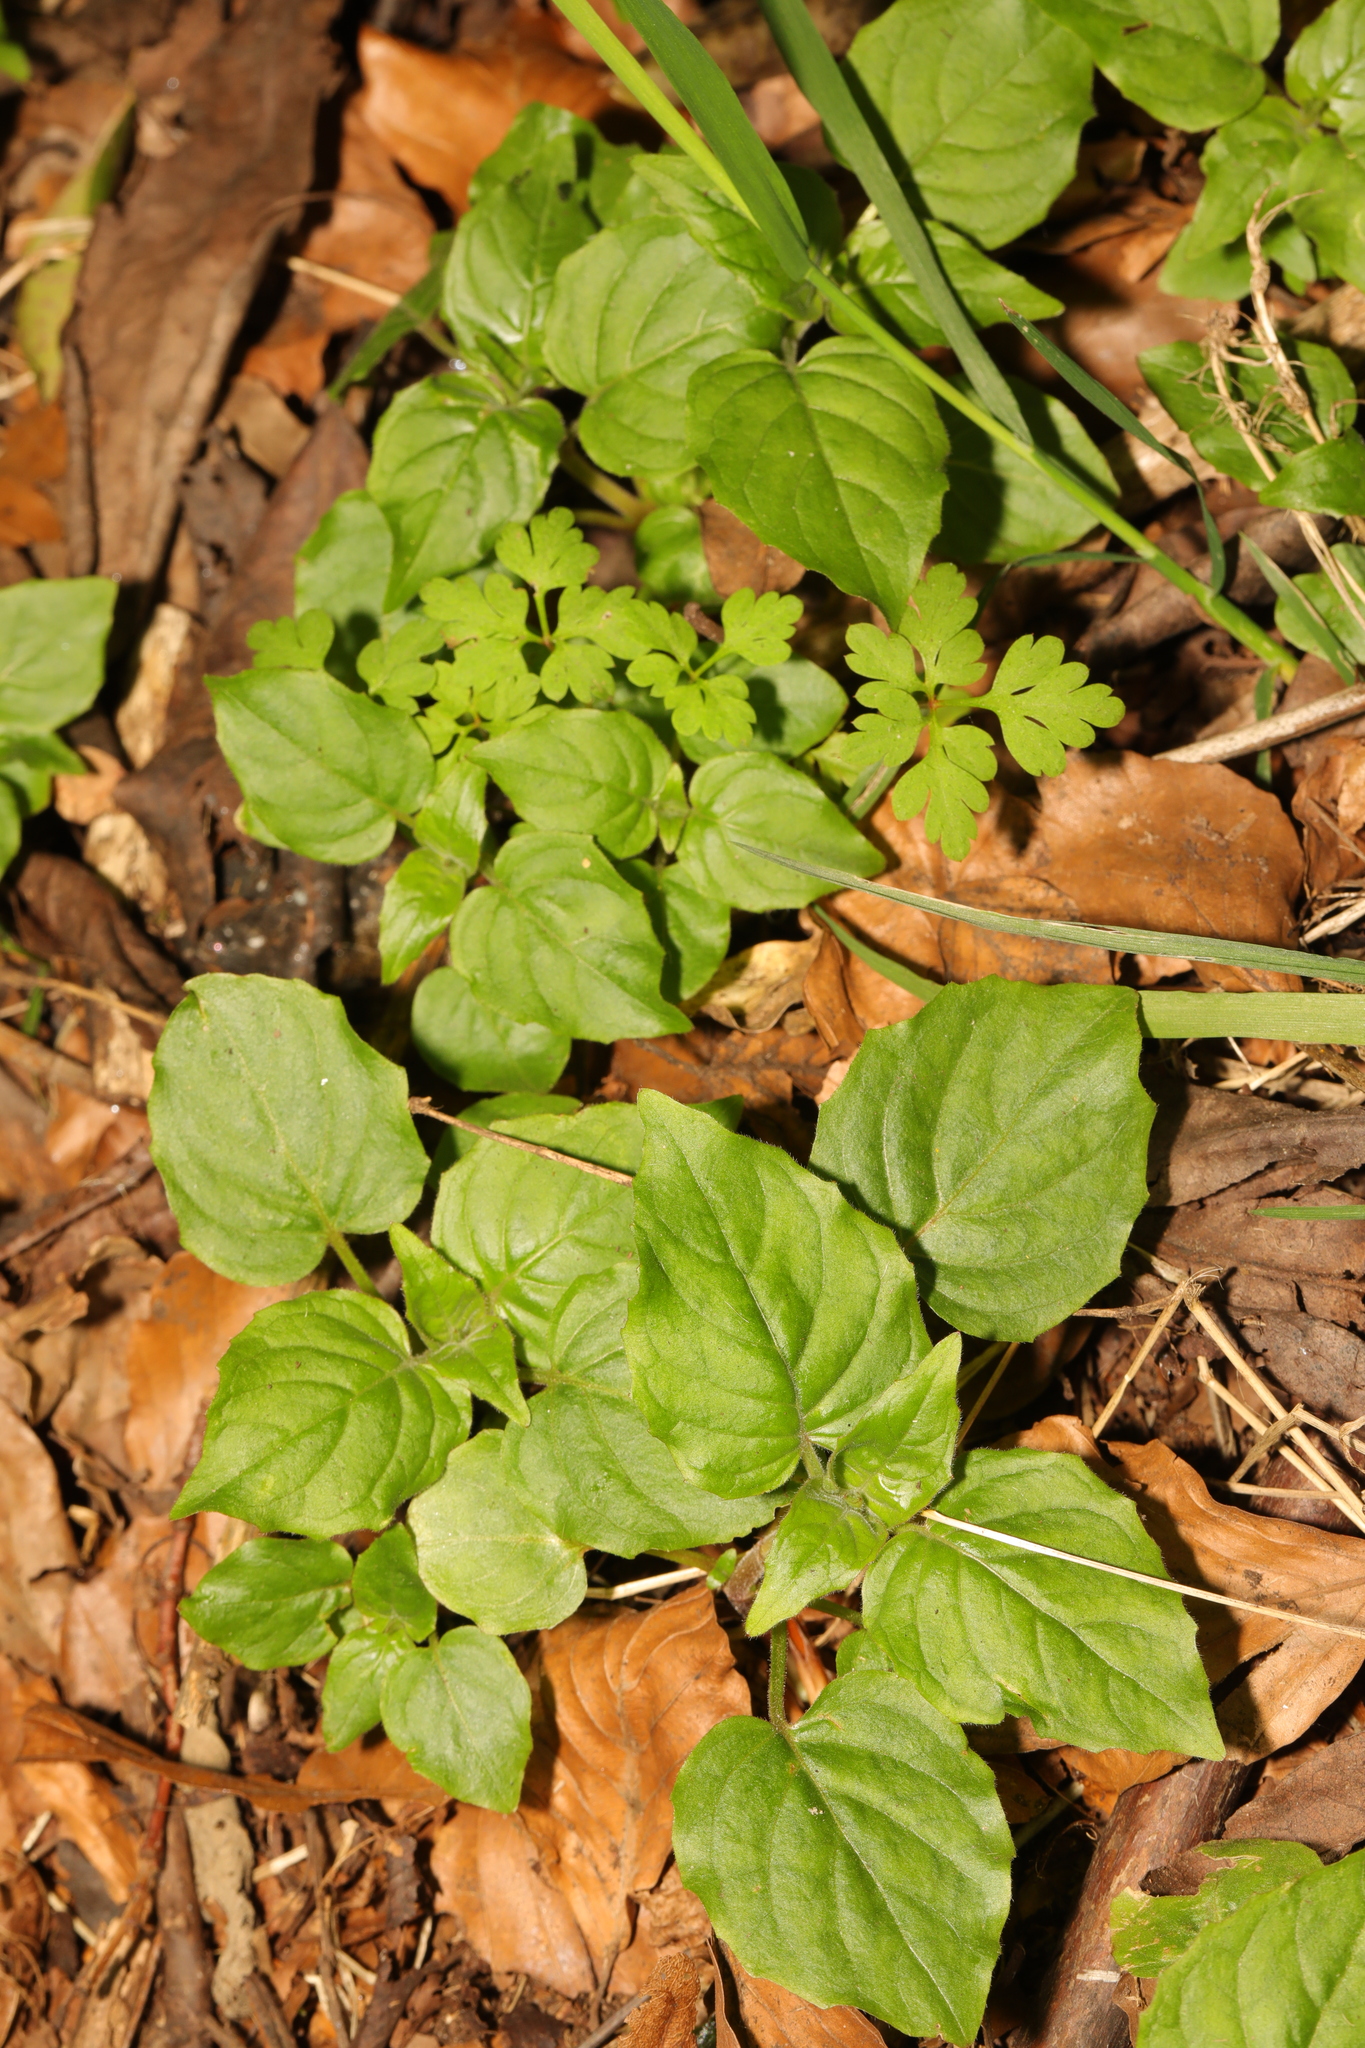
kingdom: Plantae
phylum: Tracheophyta
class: Magnoliopsida
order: Myrtales
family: Onagraceae
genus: Circaea
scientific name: Circaea lutetiana
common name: Enchanter's-nightshade
